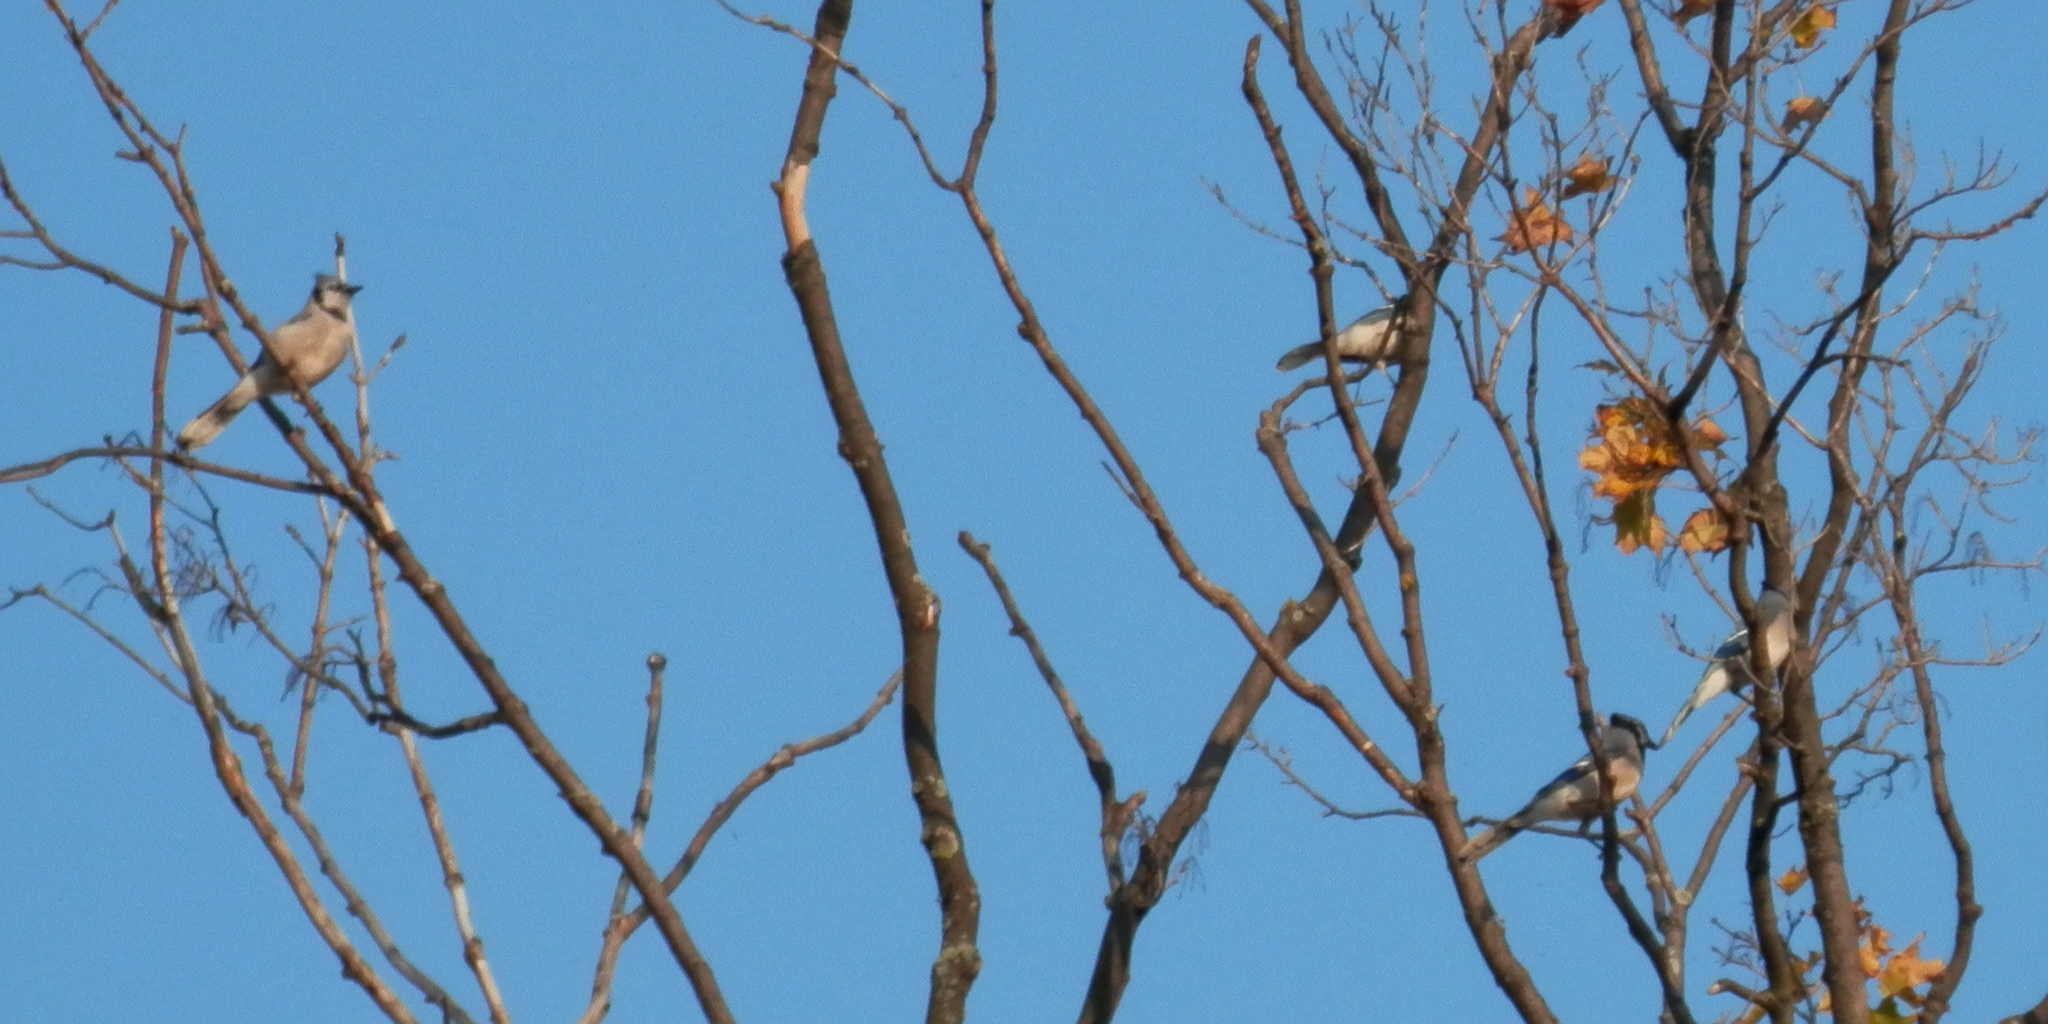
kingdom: Animalia
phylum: Chordata
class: Aves
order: Passeriformes
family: Corvidae
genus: Cyanocitta
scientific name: Cyanocitta cristata
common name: Blue jay
